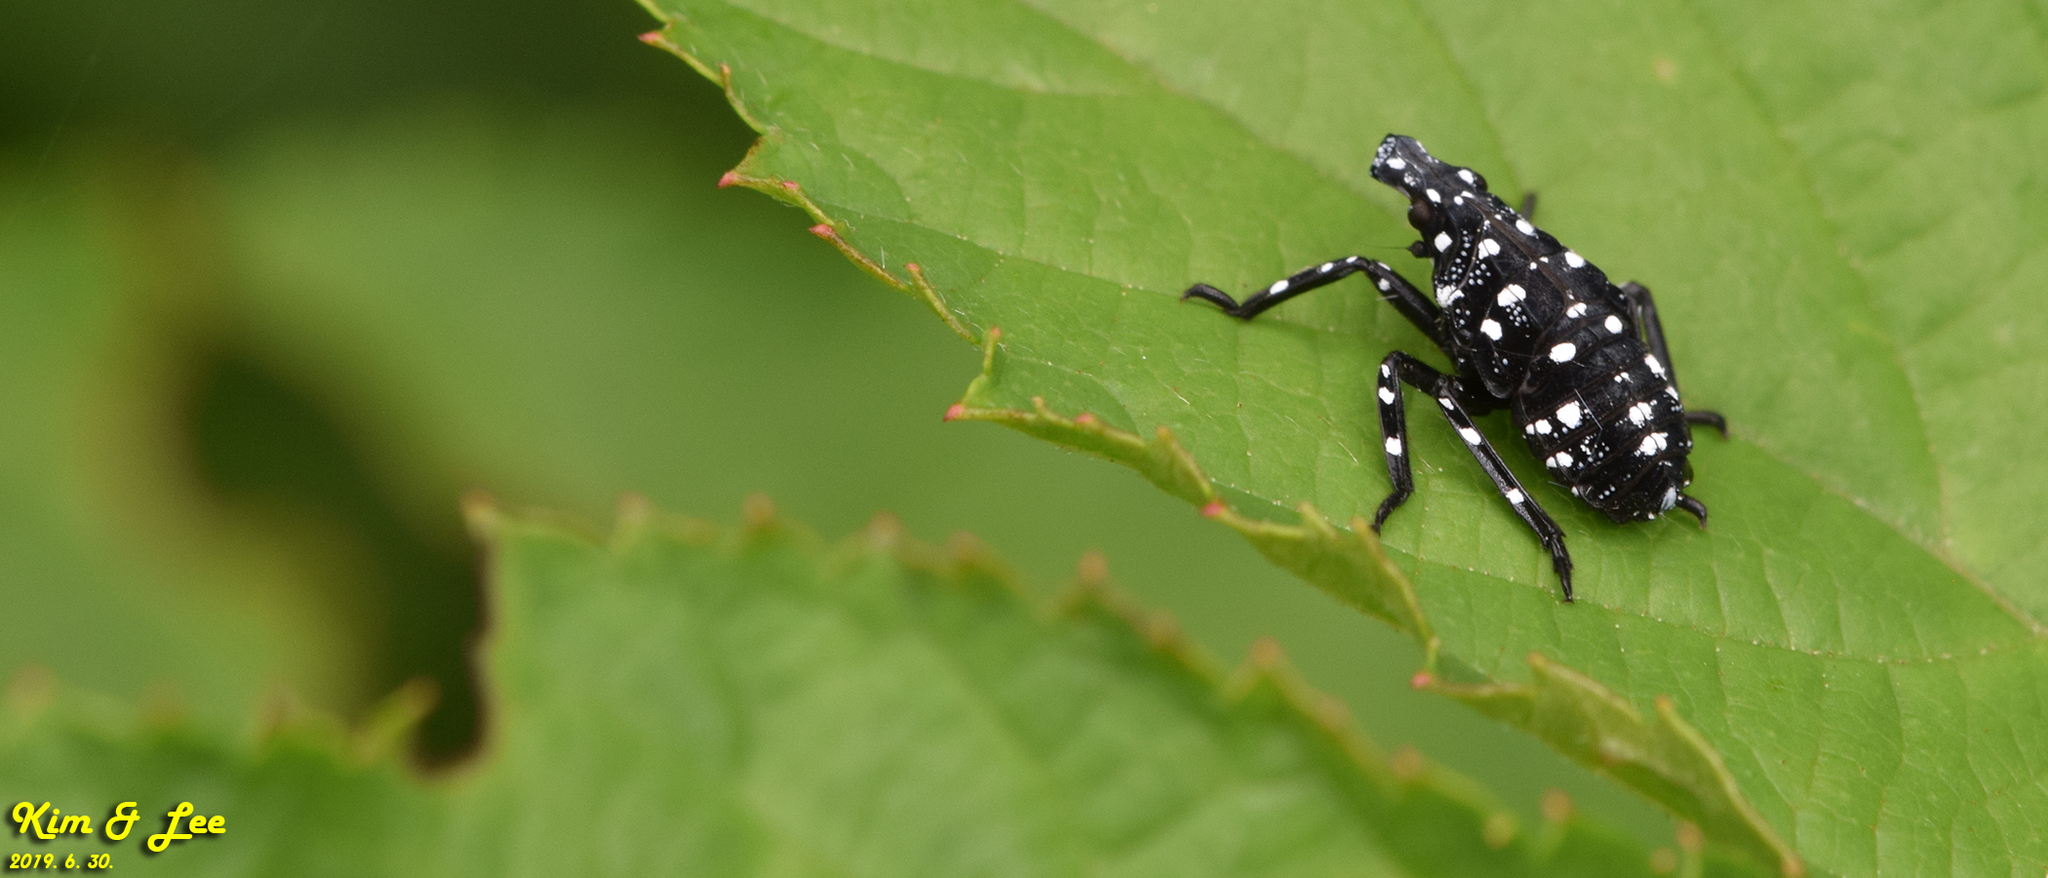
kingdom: Animalia
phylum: Arthropoda
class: Insecta
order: Hemiptera
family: Fulgoridae
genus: Lycorma
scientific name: Lycorma delicatula
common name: Spotted lanternfly
